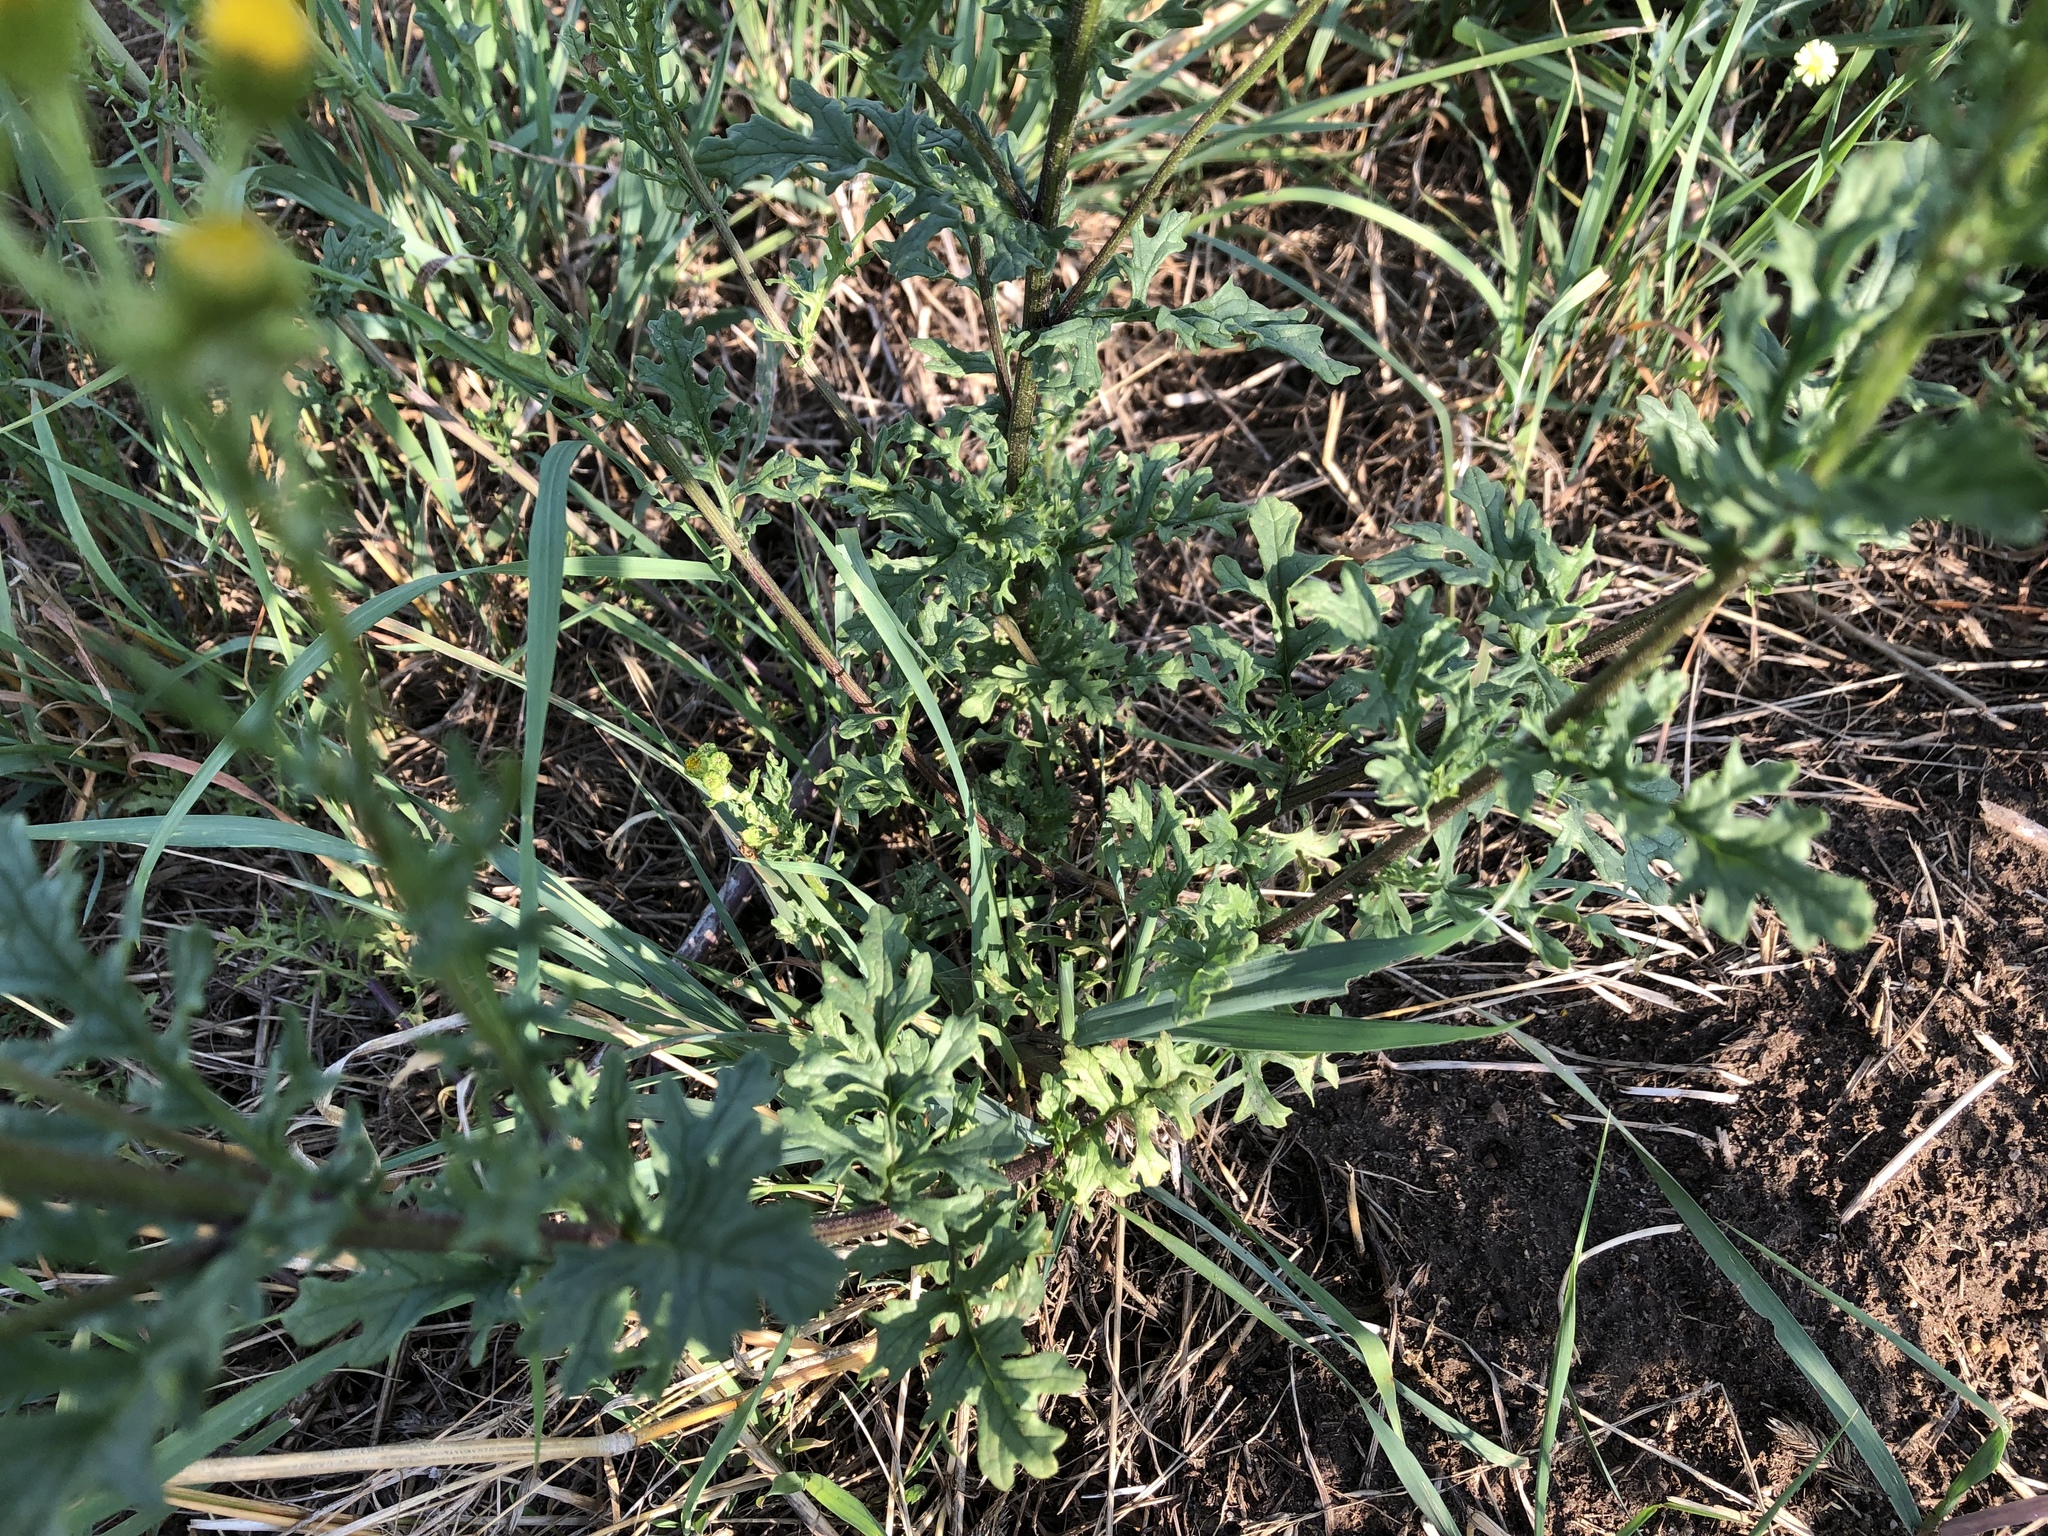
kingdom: Plantae
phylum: Tracheophyta
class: Magnoliopsida
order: Asterales
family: Asteraceae
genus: Jacobaea
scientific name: Jacobaea vulgaris
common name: Stinking willie
